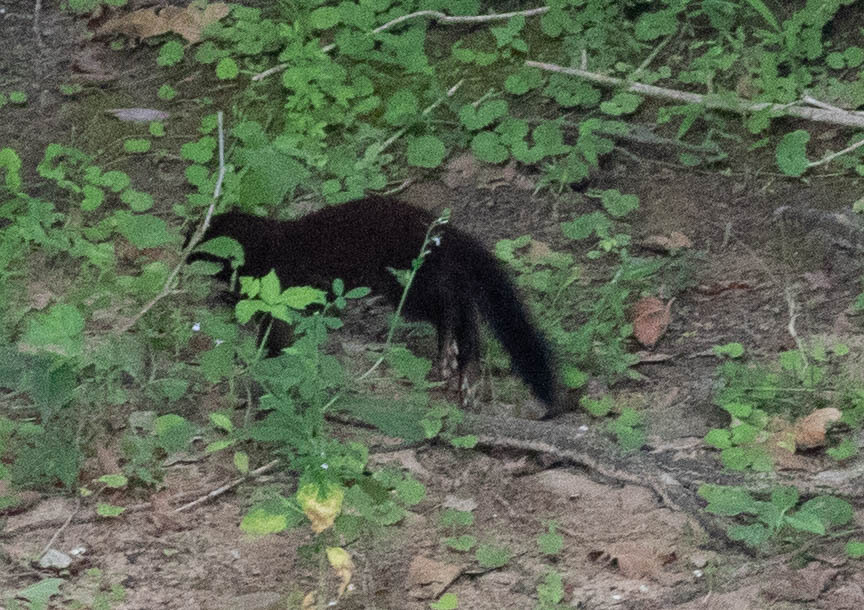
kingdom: Animalia
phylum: Chordata
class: Mammalia
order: Carnivora
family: Mustelidae
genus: Mustela
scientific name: Mustela
